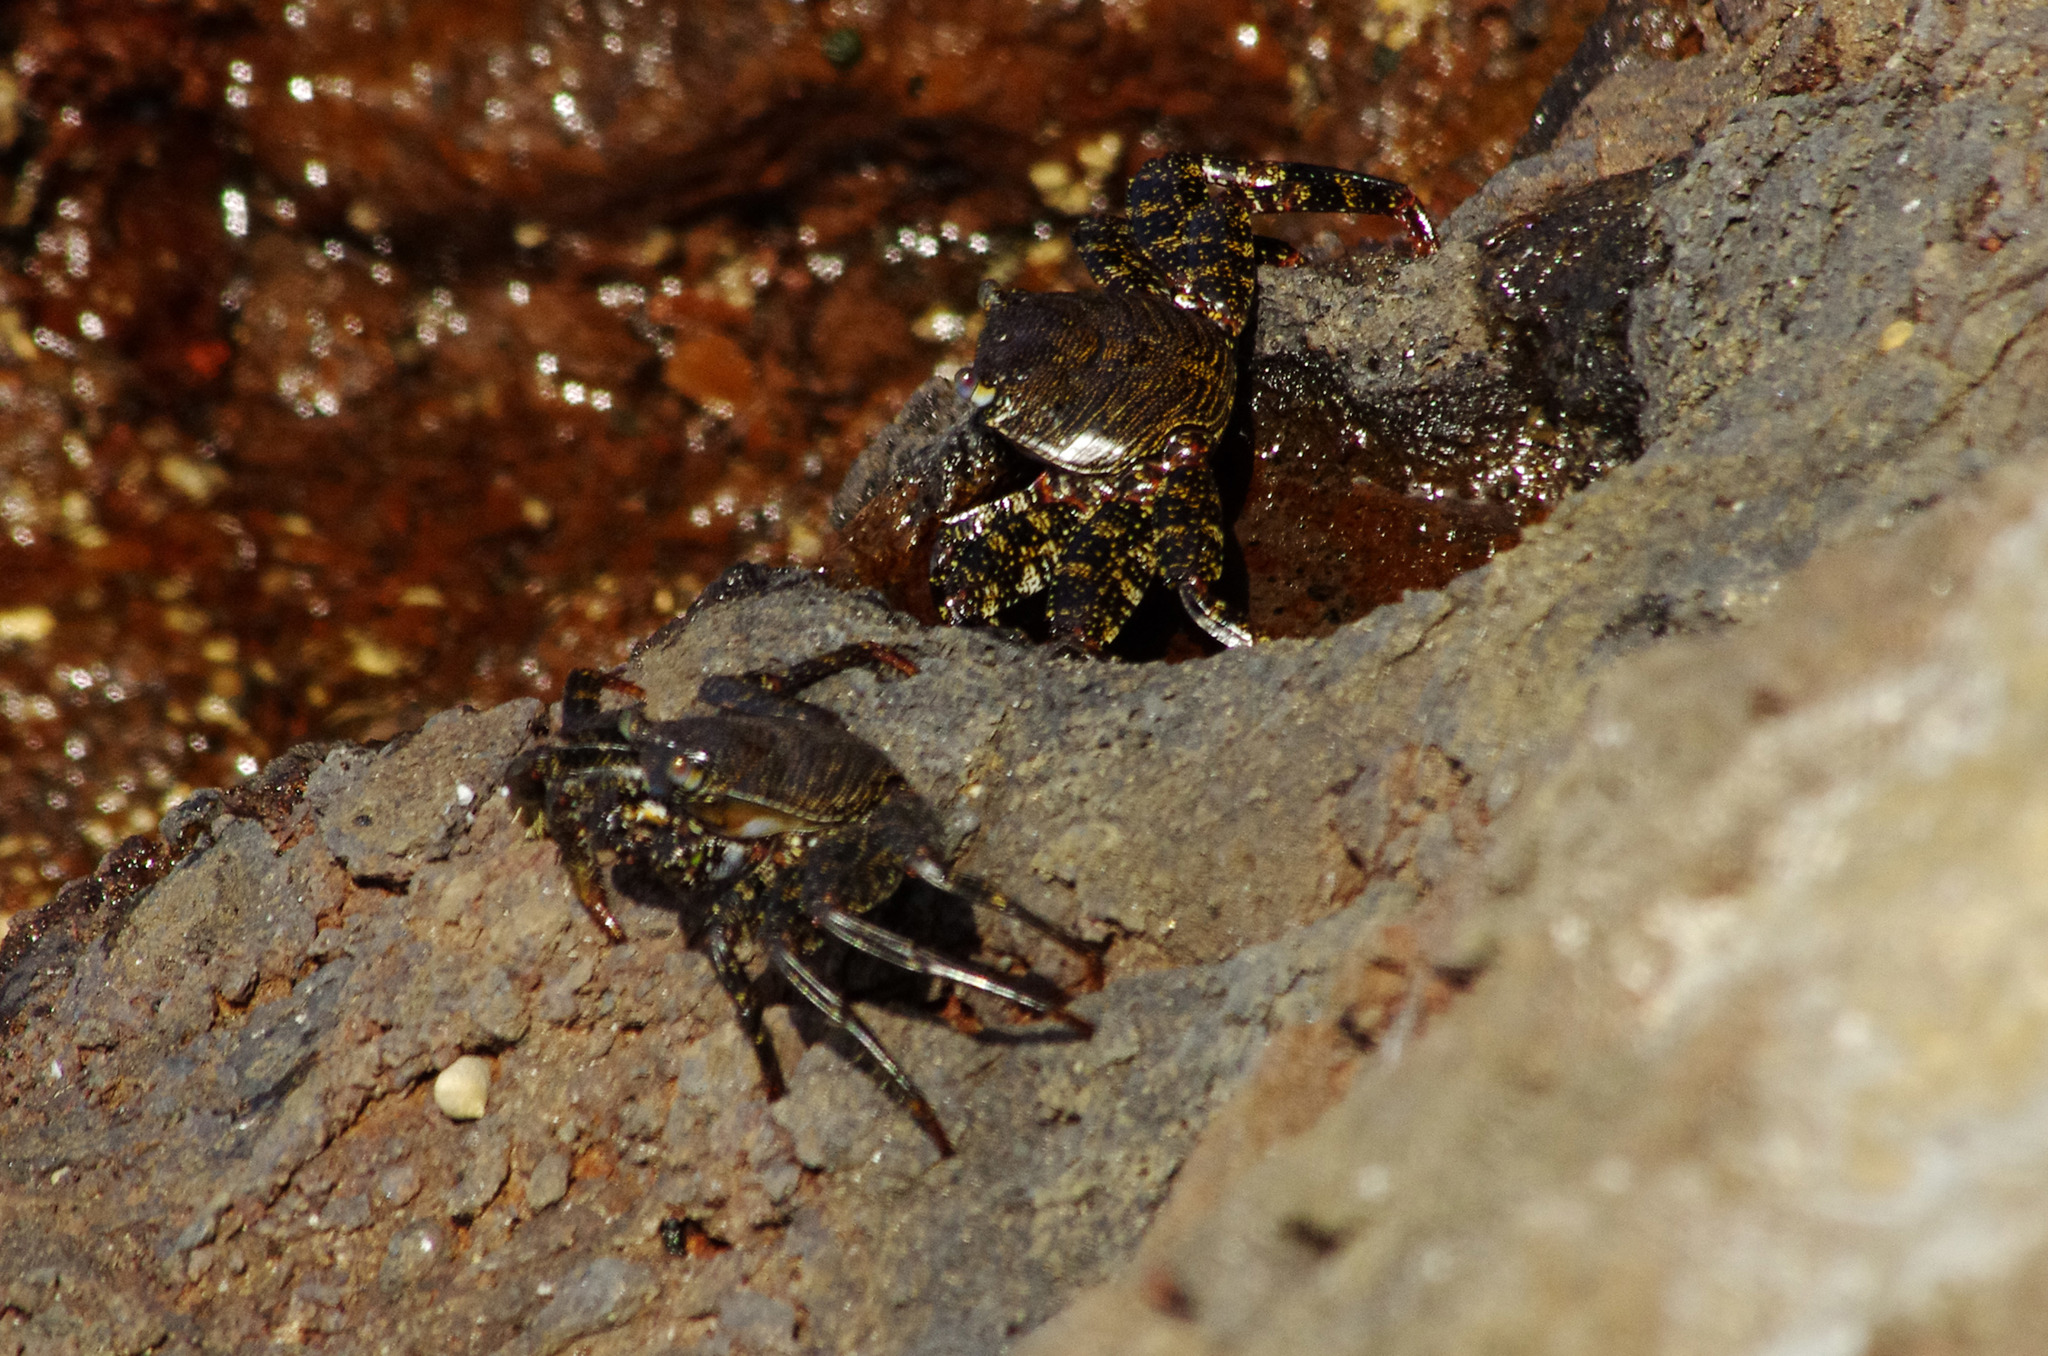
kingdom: Animalia
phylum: Arthropoda
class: Malacostraca
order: Decapoda
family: Grapsidae
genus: Grapsus
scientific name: Grapsus adscensionis
